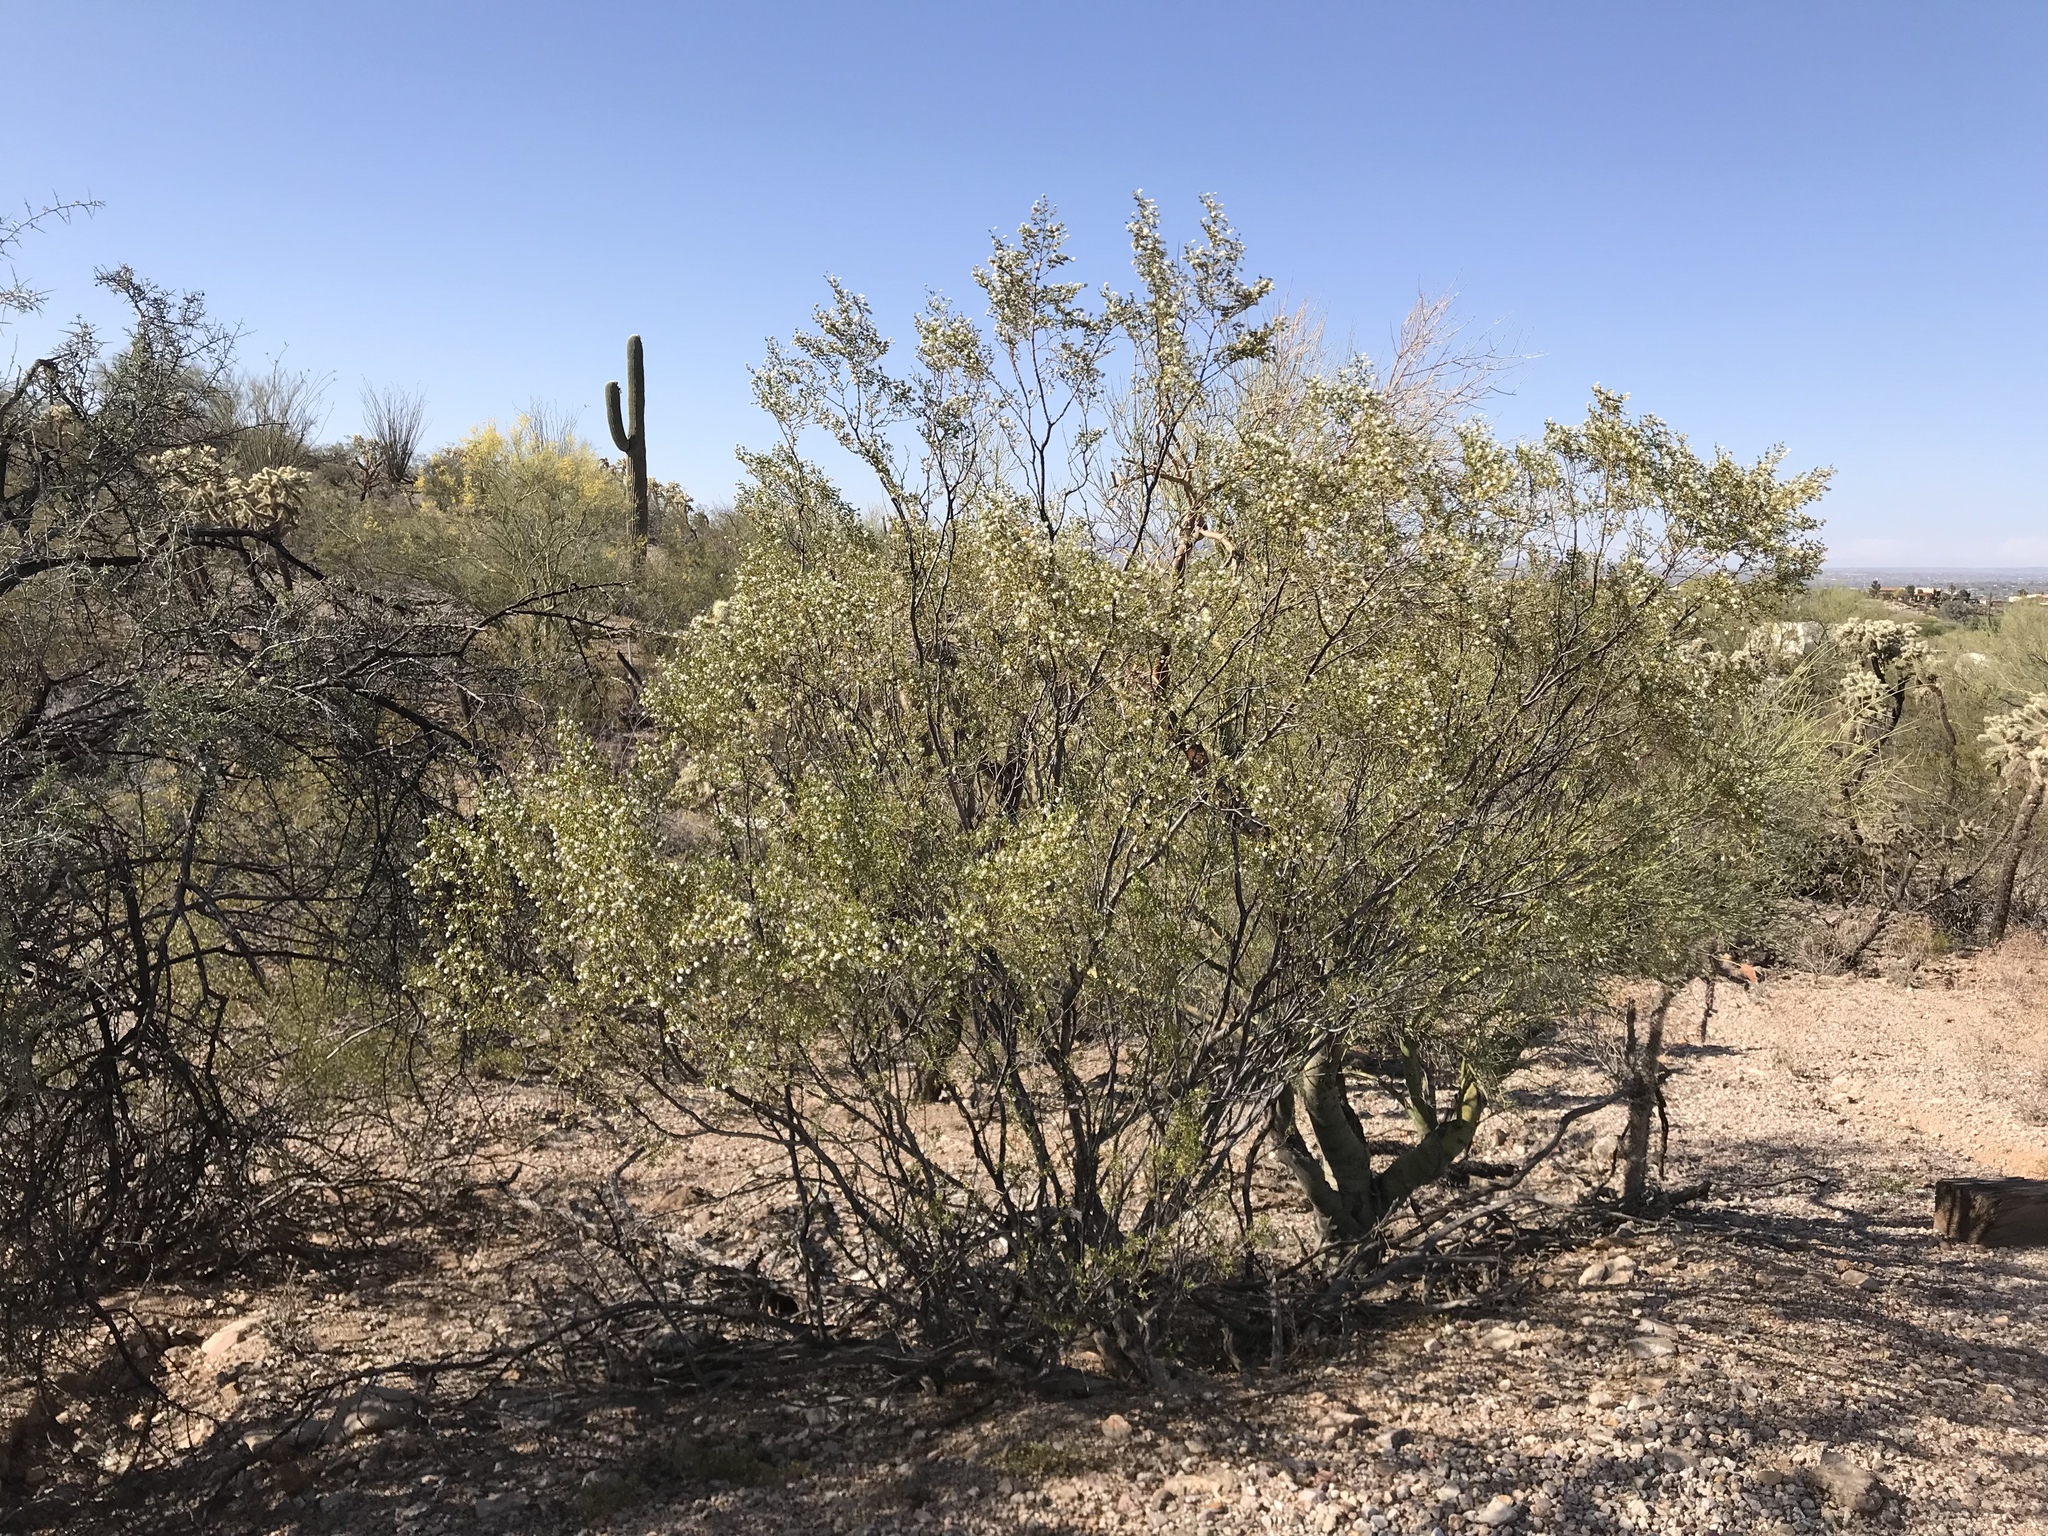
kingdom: Plantae
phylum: Tracheophyta
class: Magnoliopsida
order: Zygophyllales
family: Zygophyllaceae
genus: Larrea
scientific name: Larrea tridentata
